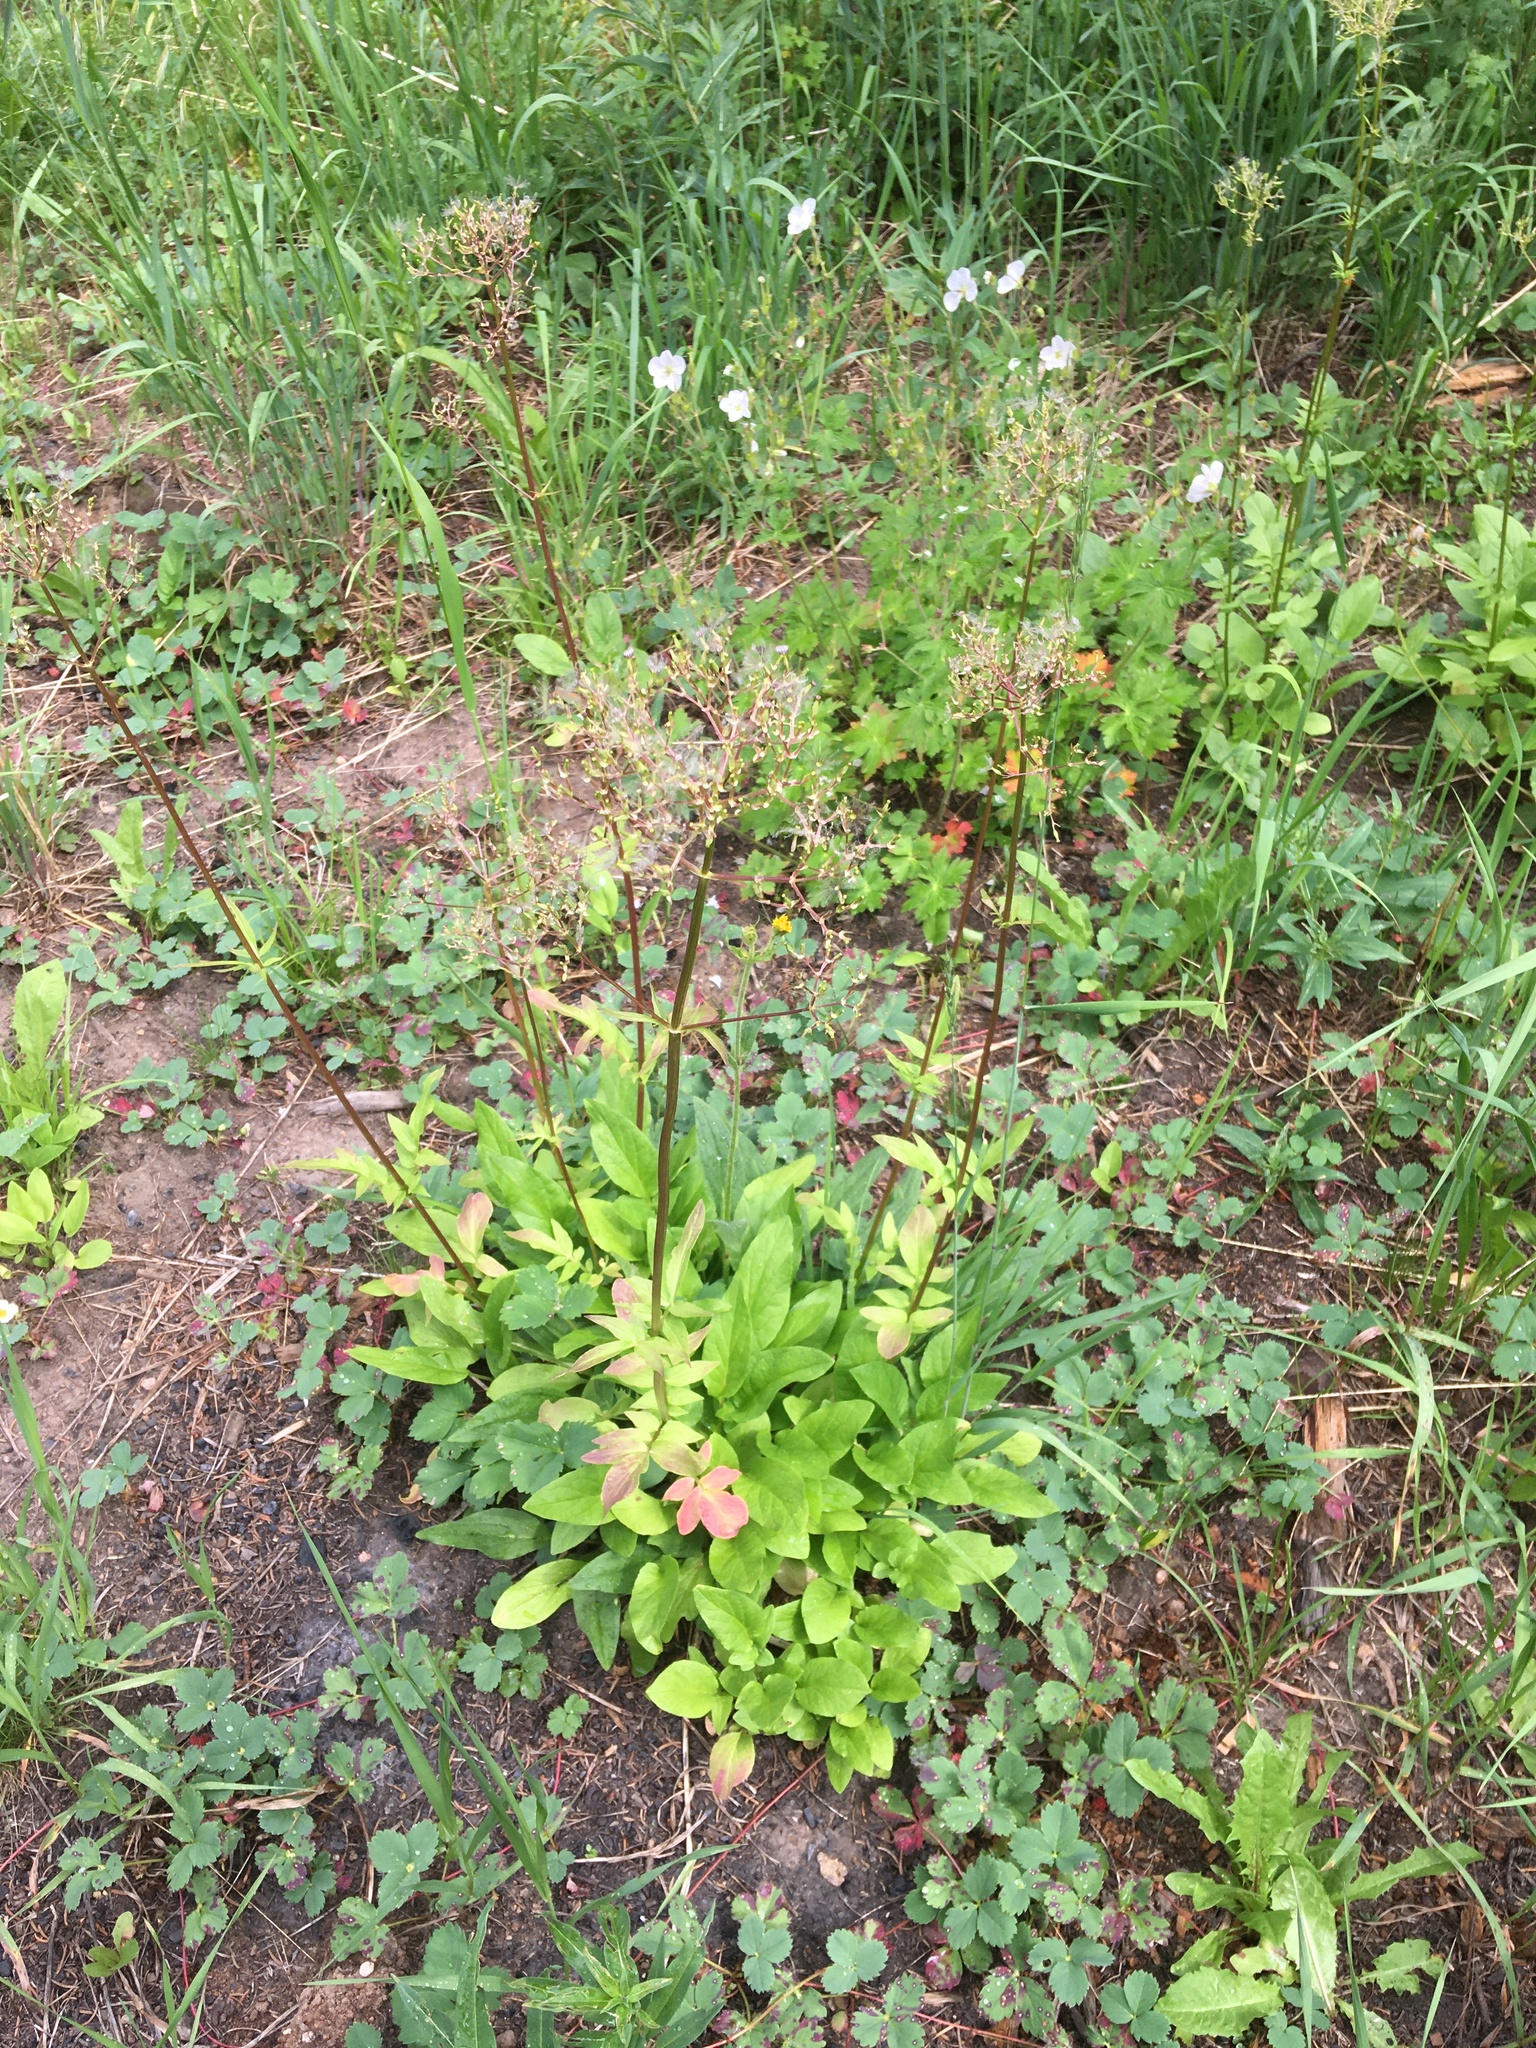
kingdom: Plantae
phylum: Tracheophyta
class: Magnoliopsida
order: Dipsacales
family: Caprifoliaceae
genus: Valeriana
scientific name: Valeriana occidentalis
